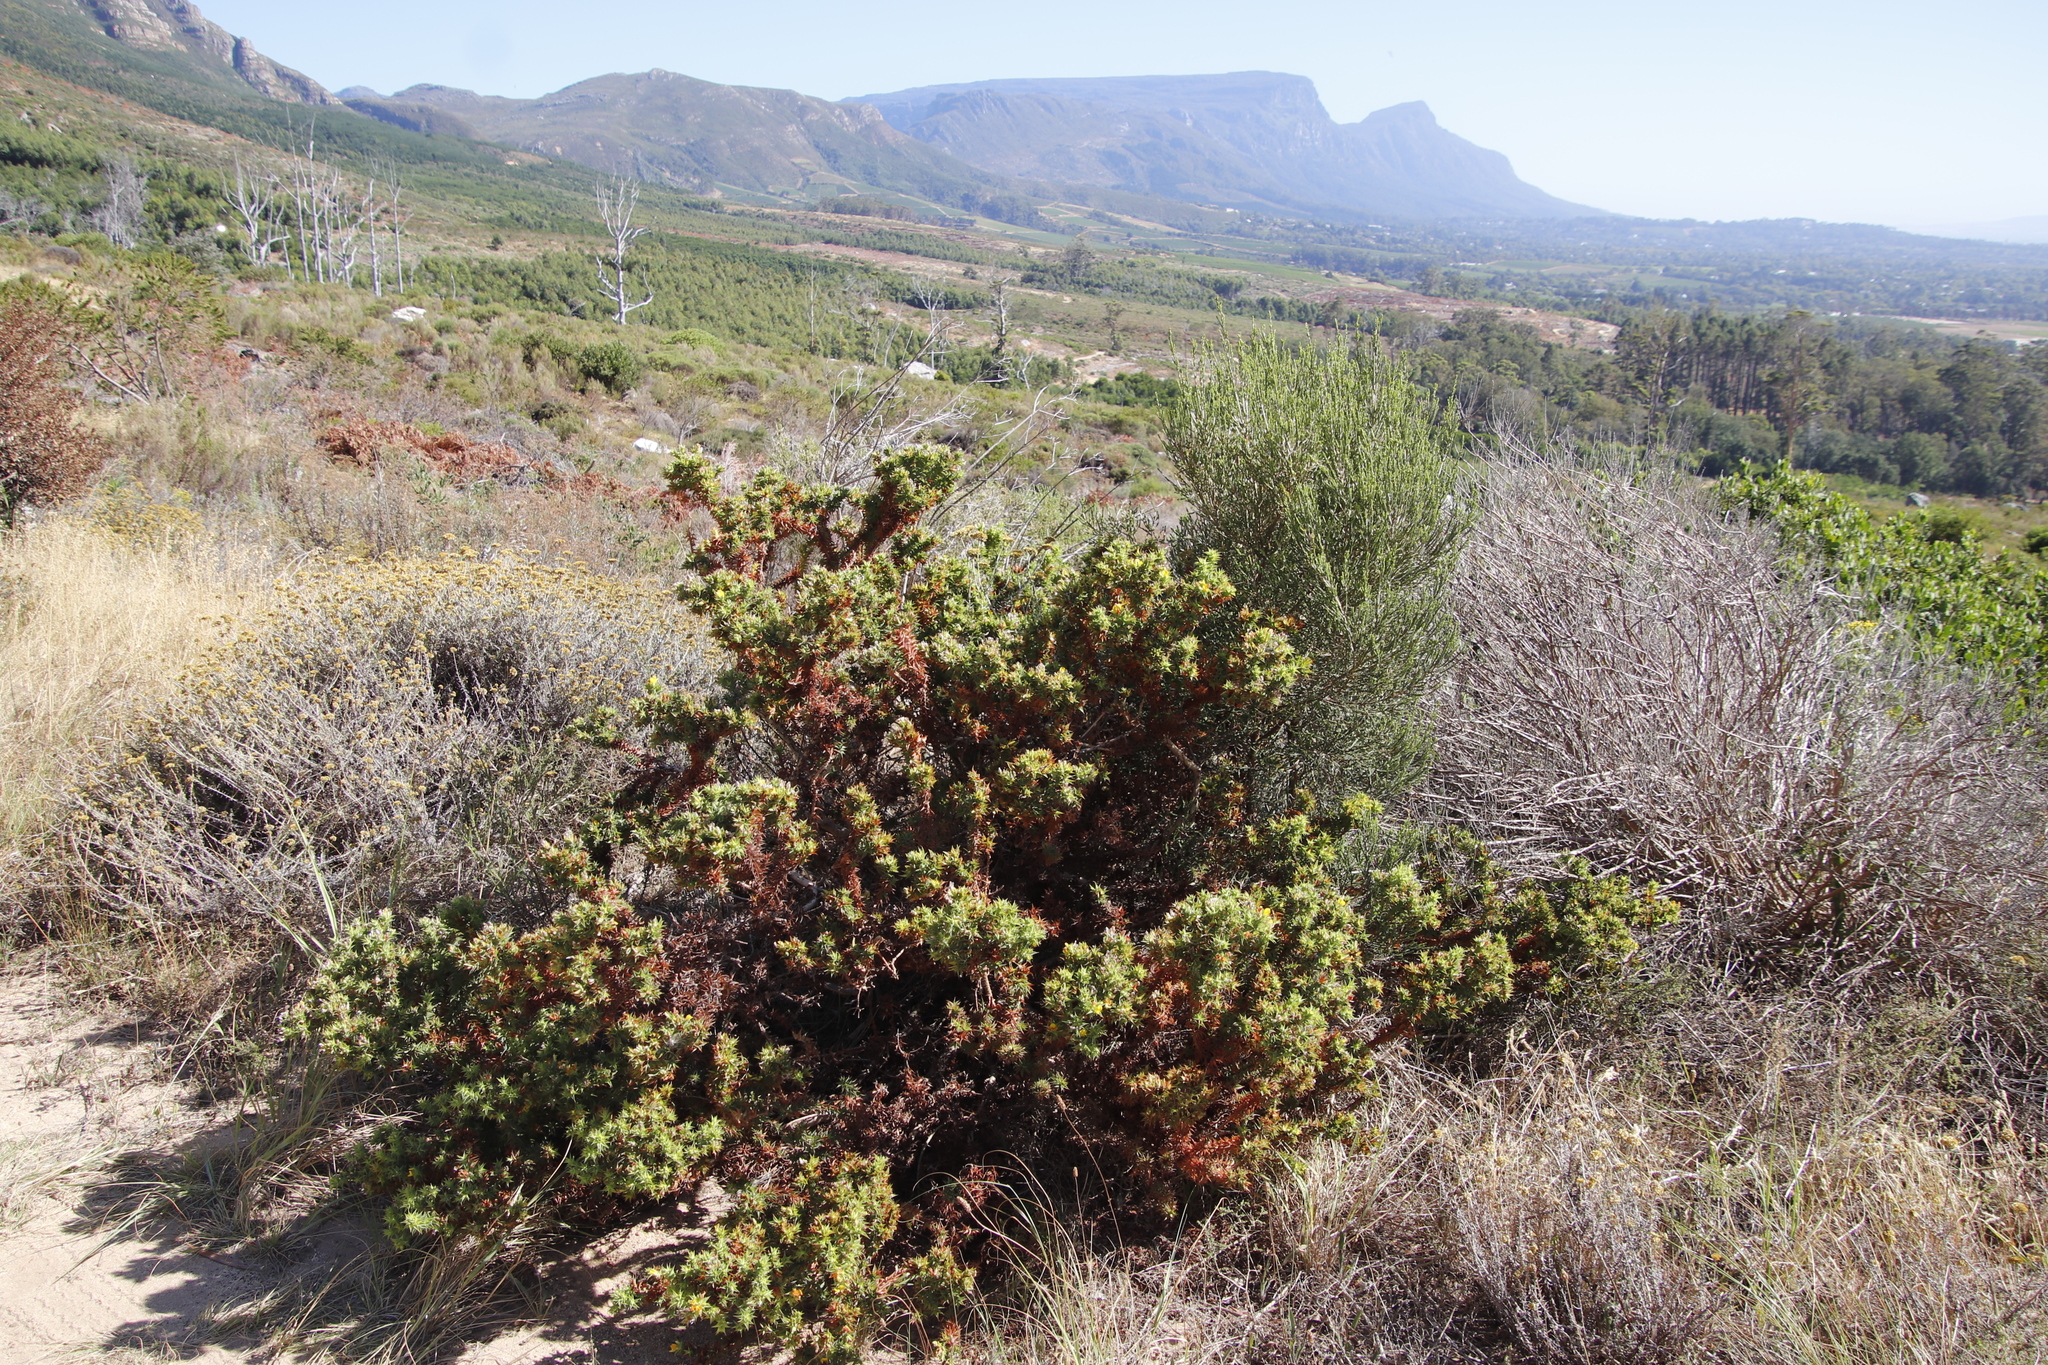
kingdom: Plantae
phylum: Tracheophyta
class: Magnoliopsida
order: Fabales
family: Fabaceae
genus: Aspalathus
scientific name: Aspalathus cordata
